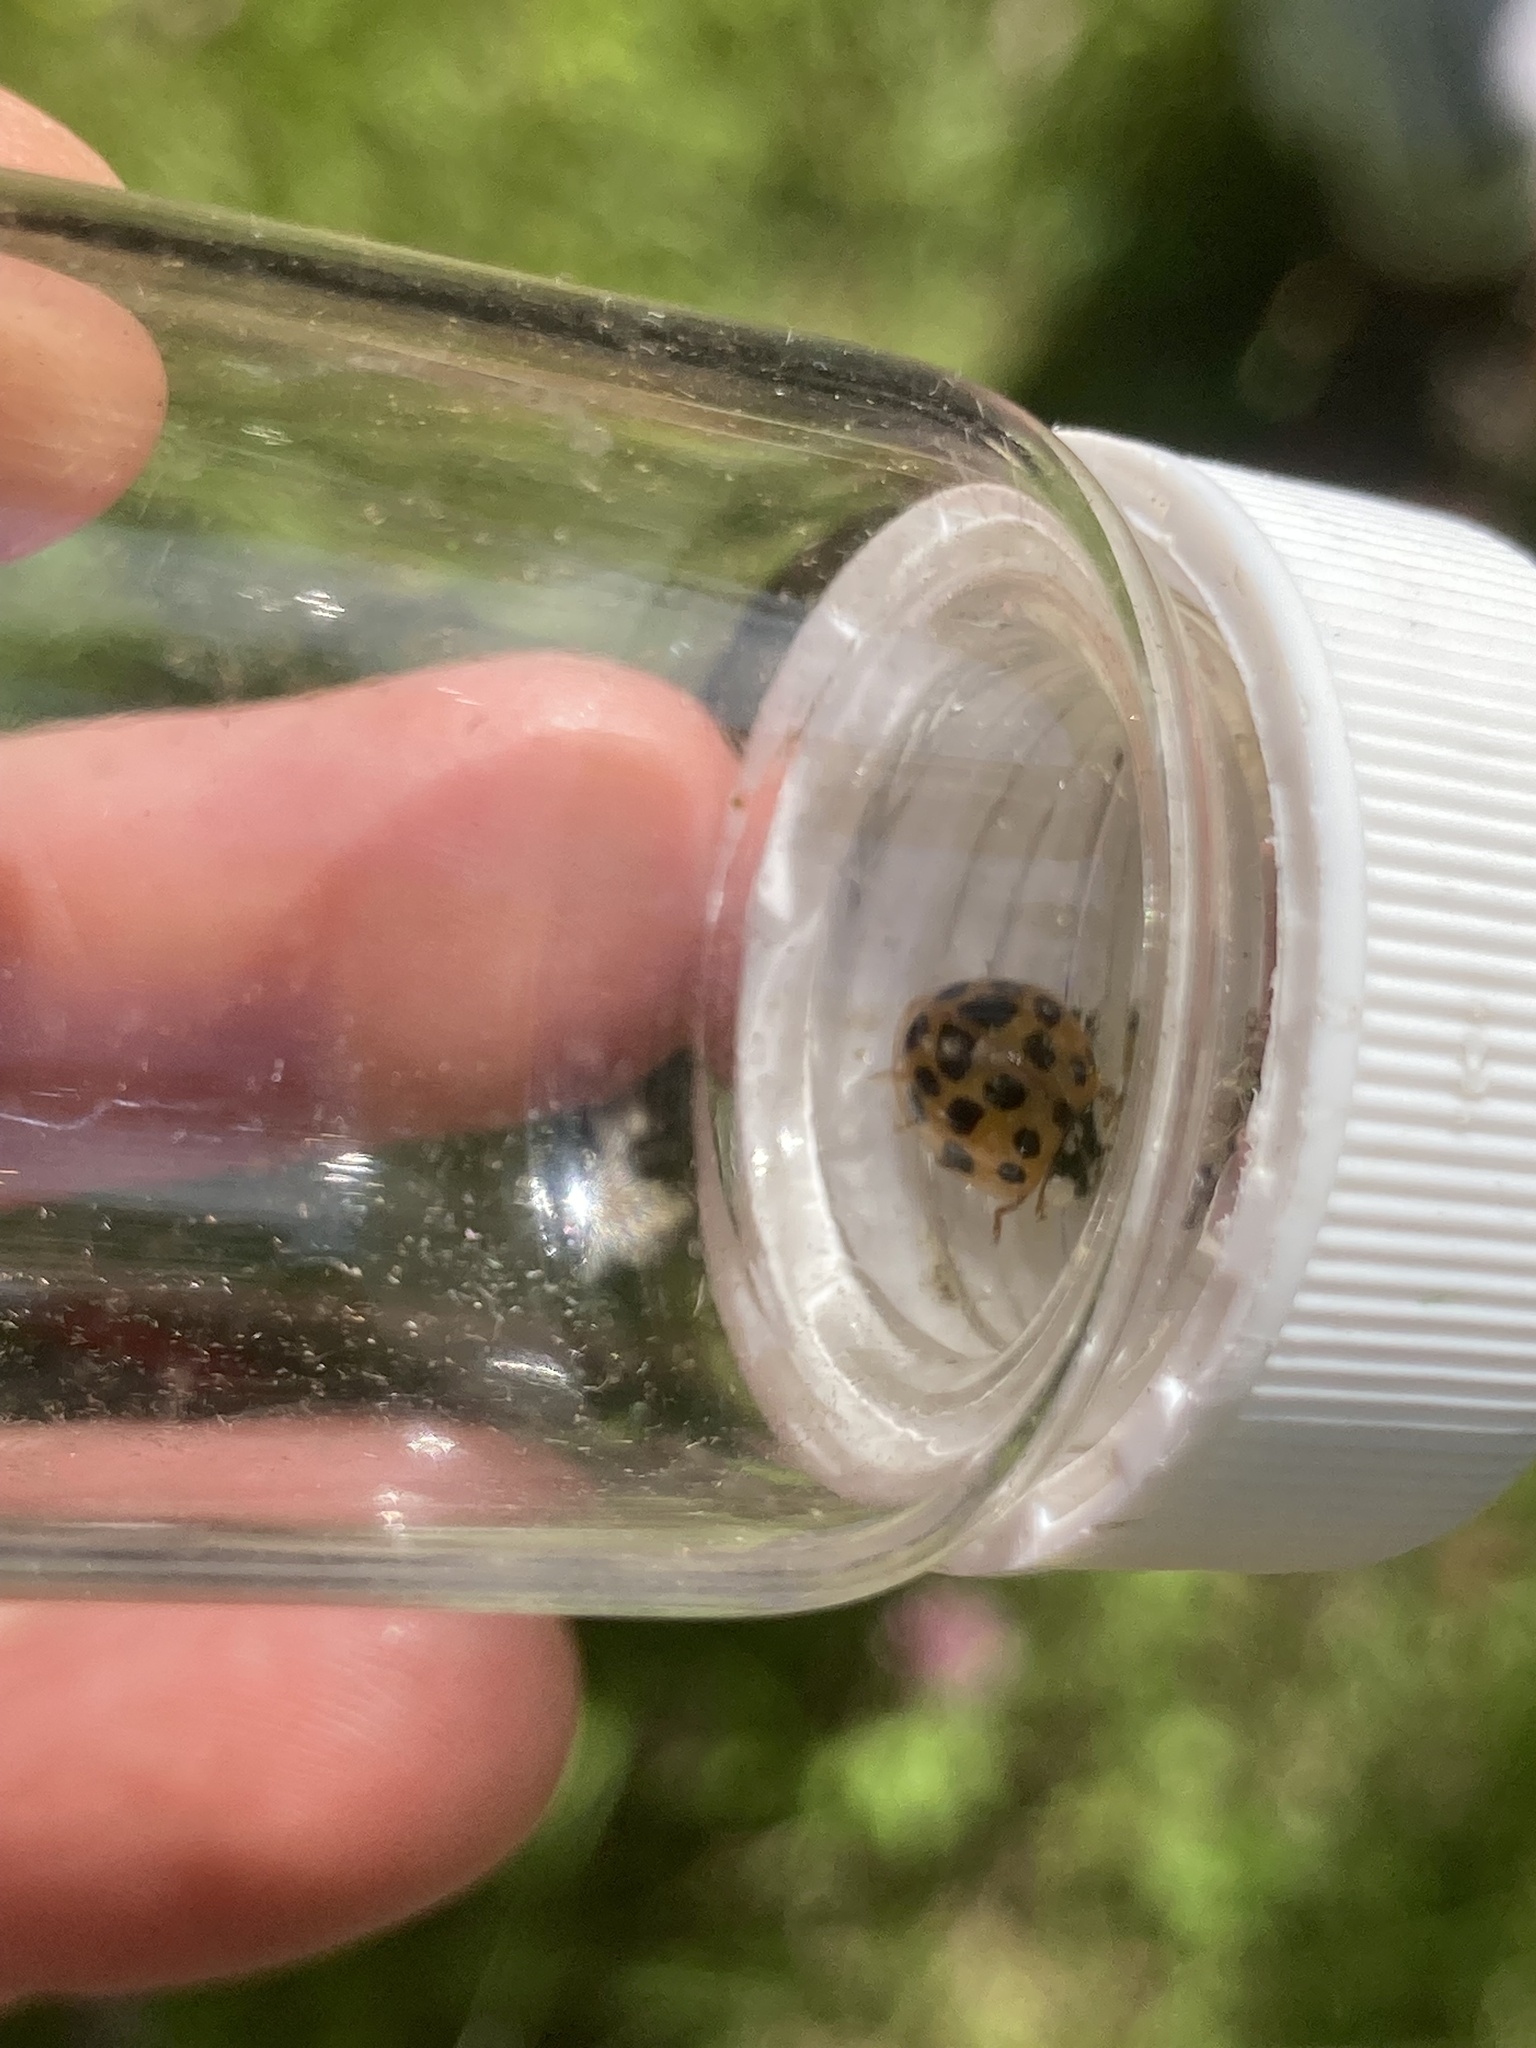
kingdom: Animalia
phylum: Arthropoda
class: Insecta
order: Coleoptera
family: Coccinellidae
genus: Harmonia
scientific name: Harmonia axyridis
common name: Harlequin ladybird
